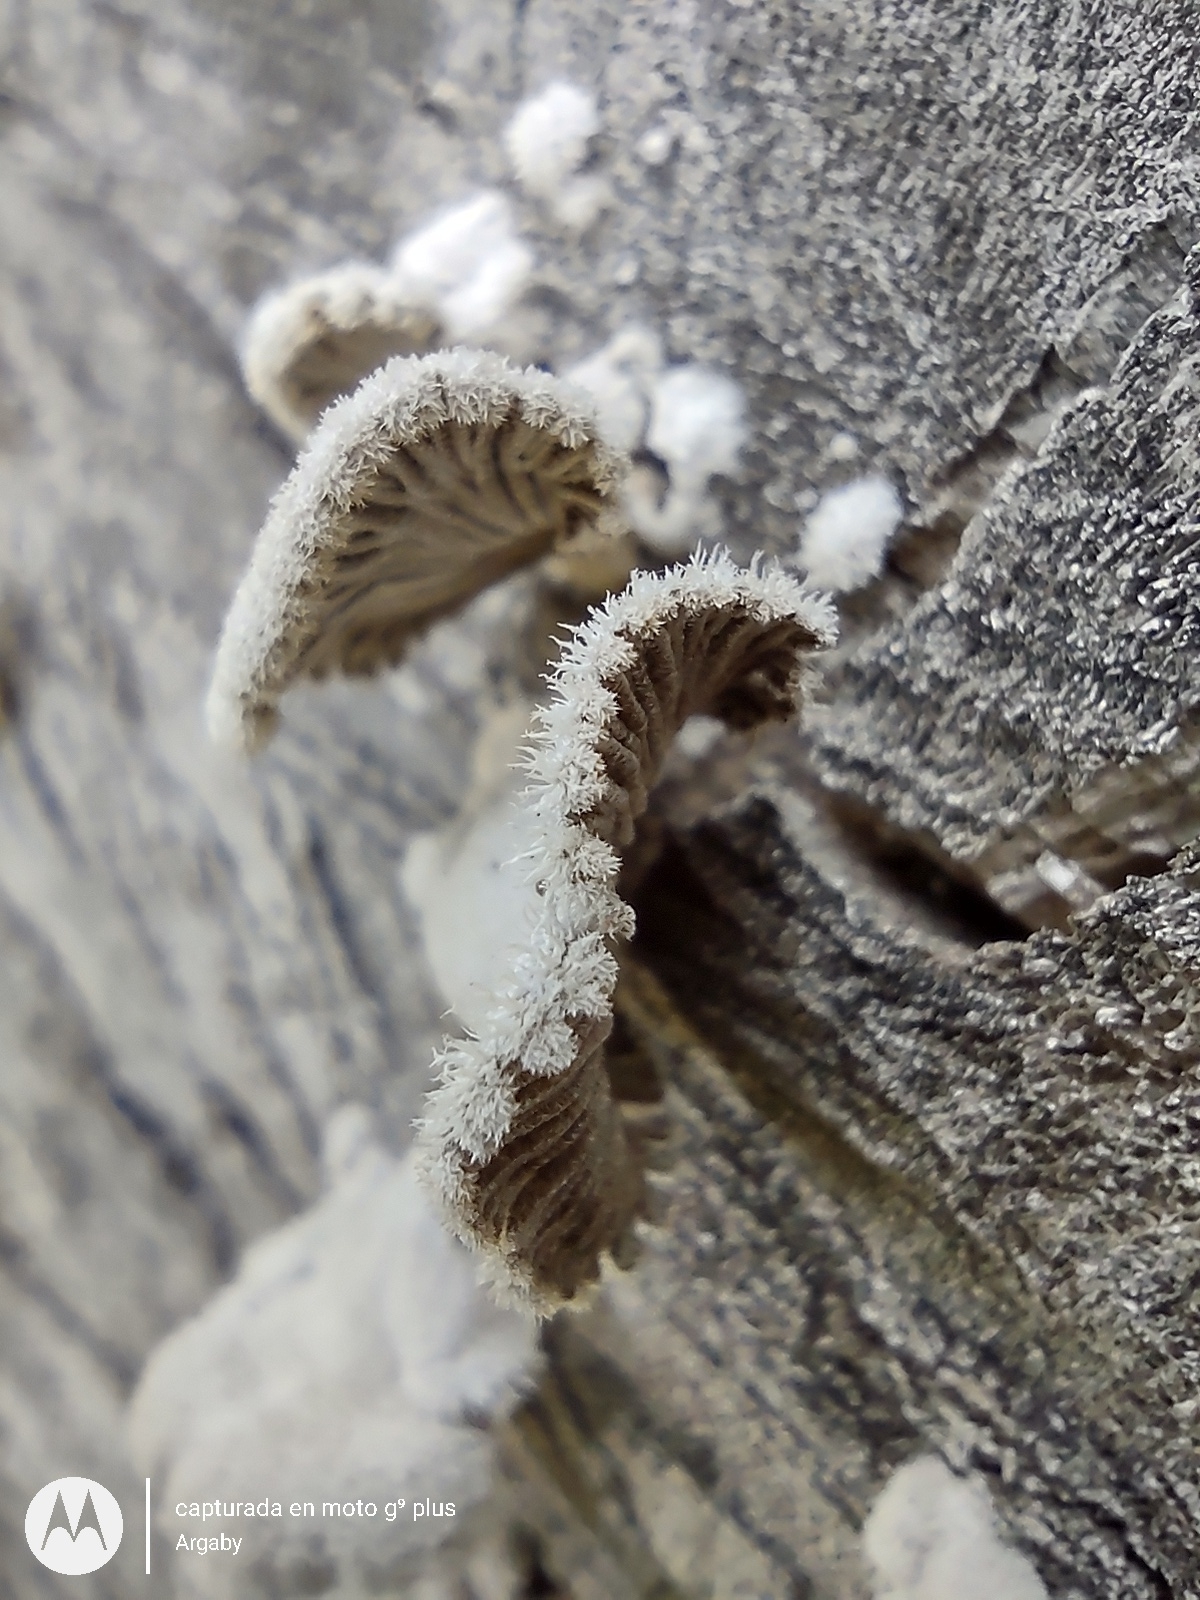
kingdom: Fungi
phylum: Basidiomycota
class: Agaricomycetes
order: Agaricales
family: Schizophyllaceae
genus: Schizophyllum
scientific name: Schizophyllum commune
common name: Common porecrust
